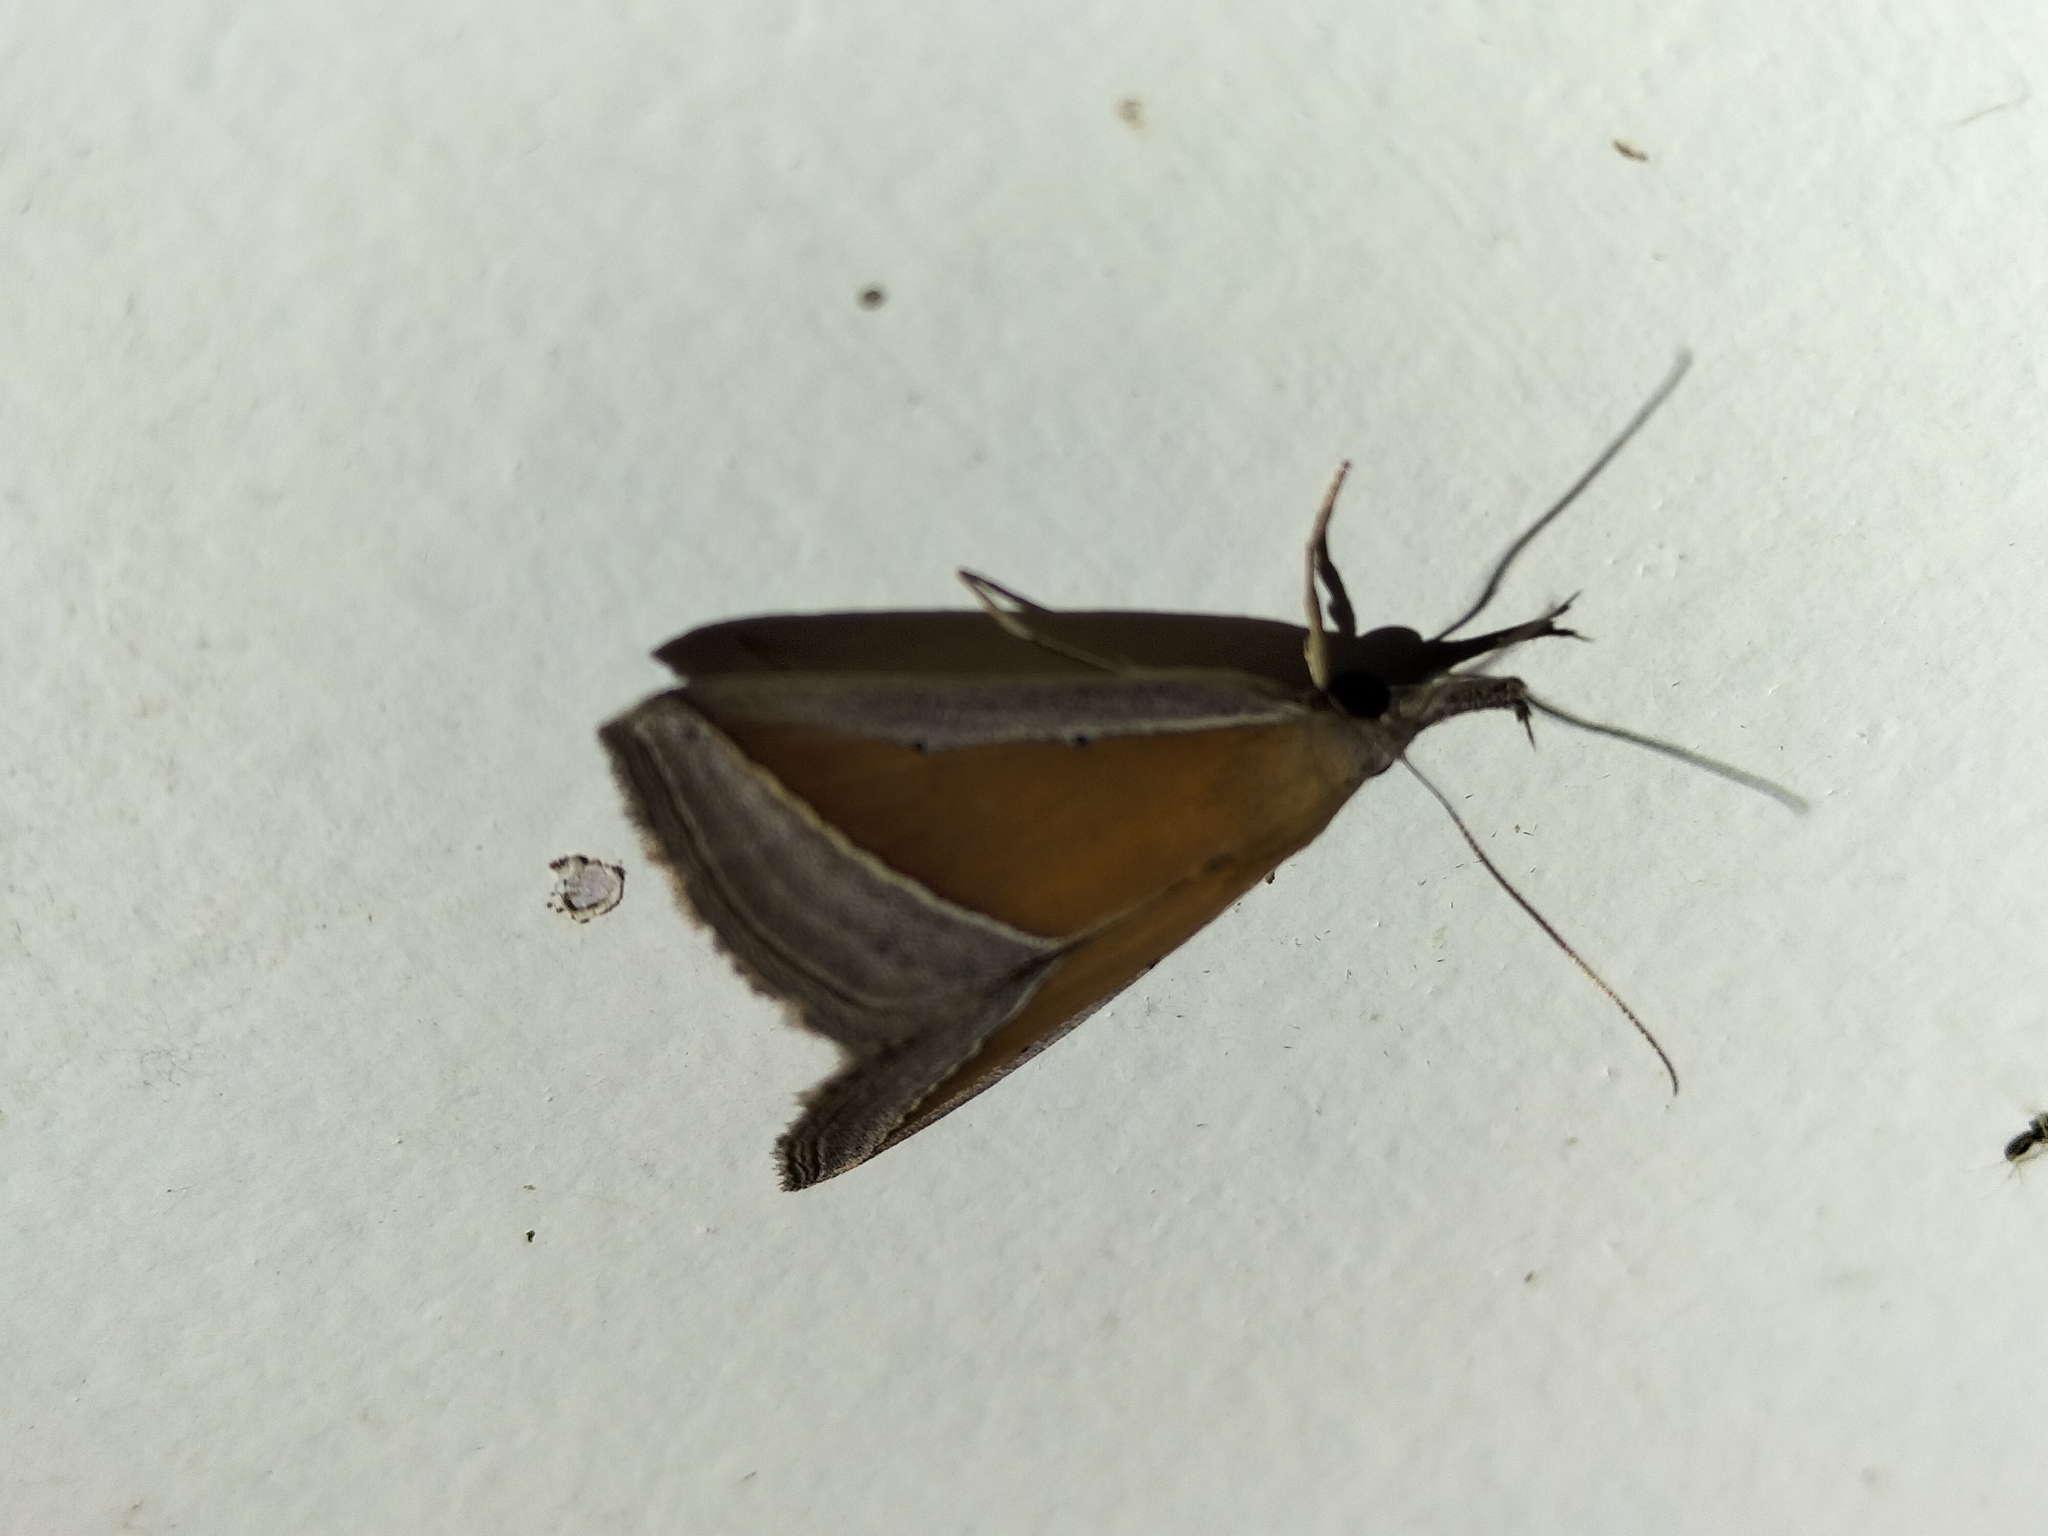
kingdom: Animalia
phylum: Arthropoda
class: Insecta
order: Lepidoptera
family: Erebidae
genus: Hypena
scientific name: Hypena conscitalis
